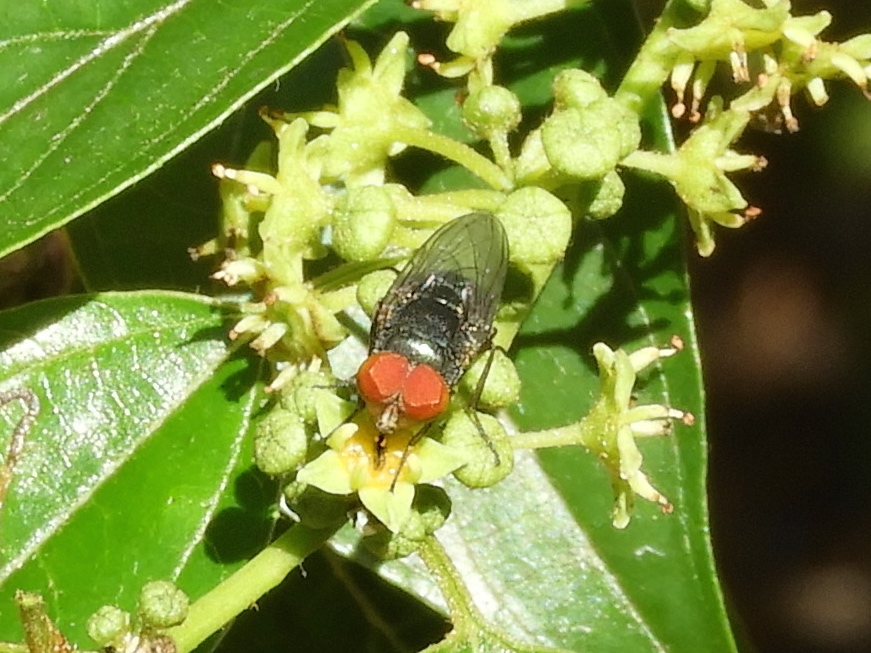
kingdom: Animalia
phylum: Arthropoda
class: Insecta
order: Diptera
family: Calliphoridae
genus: Chrysomya
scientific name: Chrysomya megacephala
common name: Blow fly
